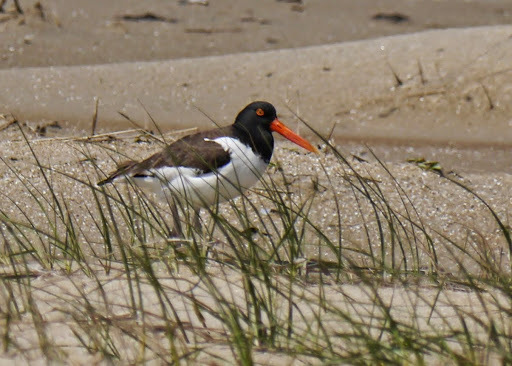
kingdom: Animalia
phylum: Chordata
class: Aves
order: Charadriiformes
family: Haematopodidae
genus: Haematopus
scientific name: Haematopus palliatus
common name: American oystercatcher
